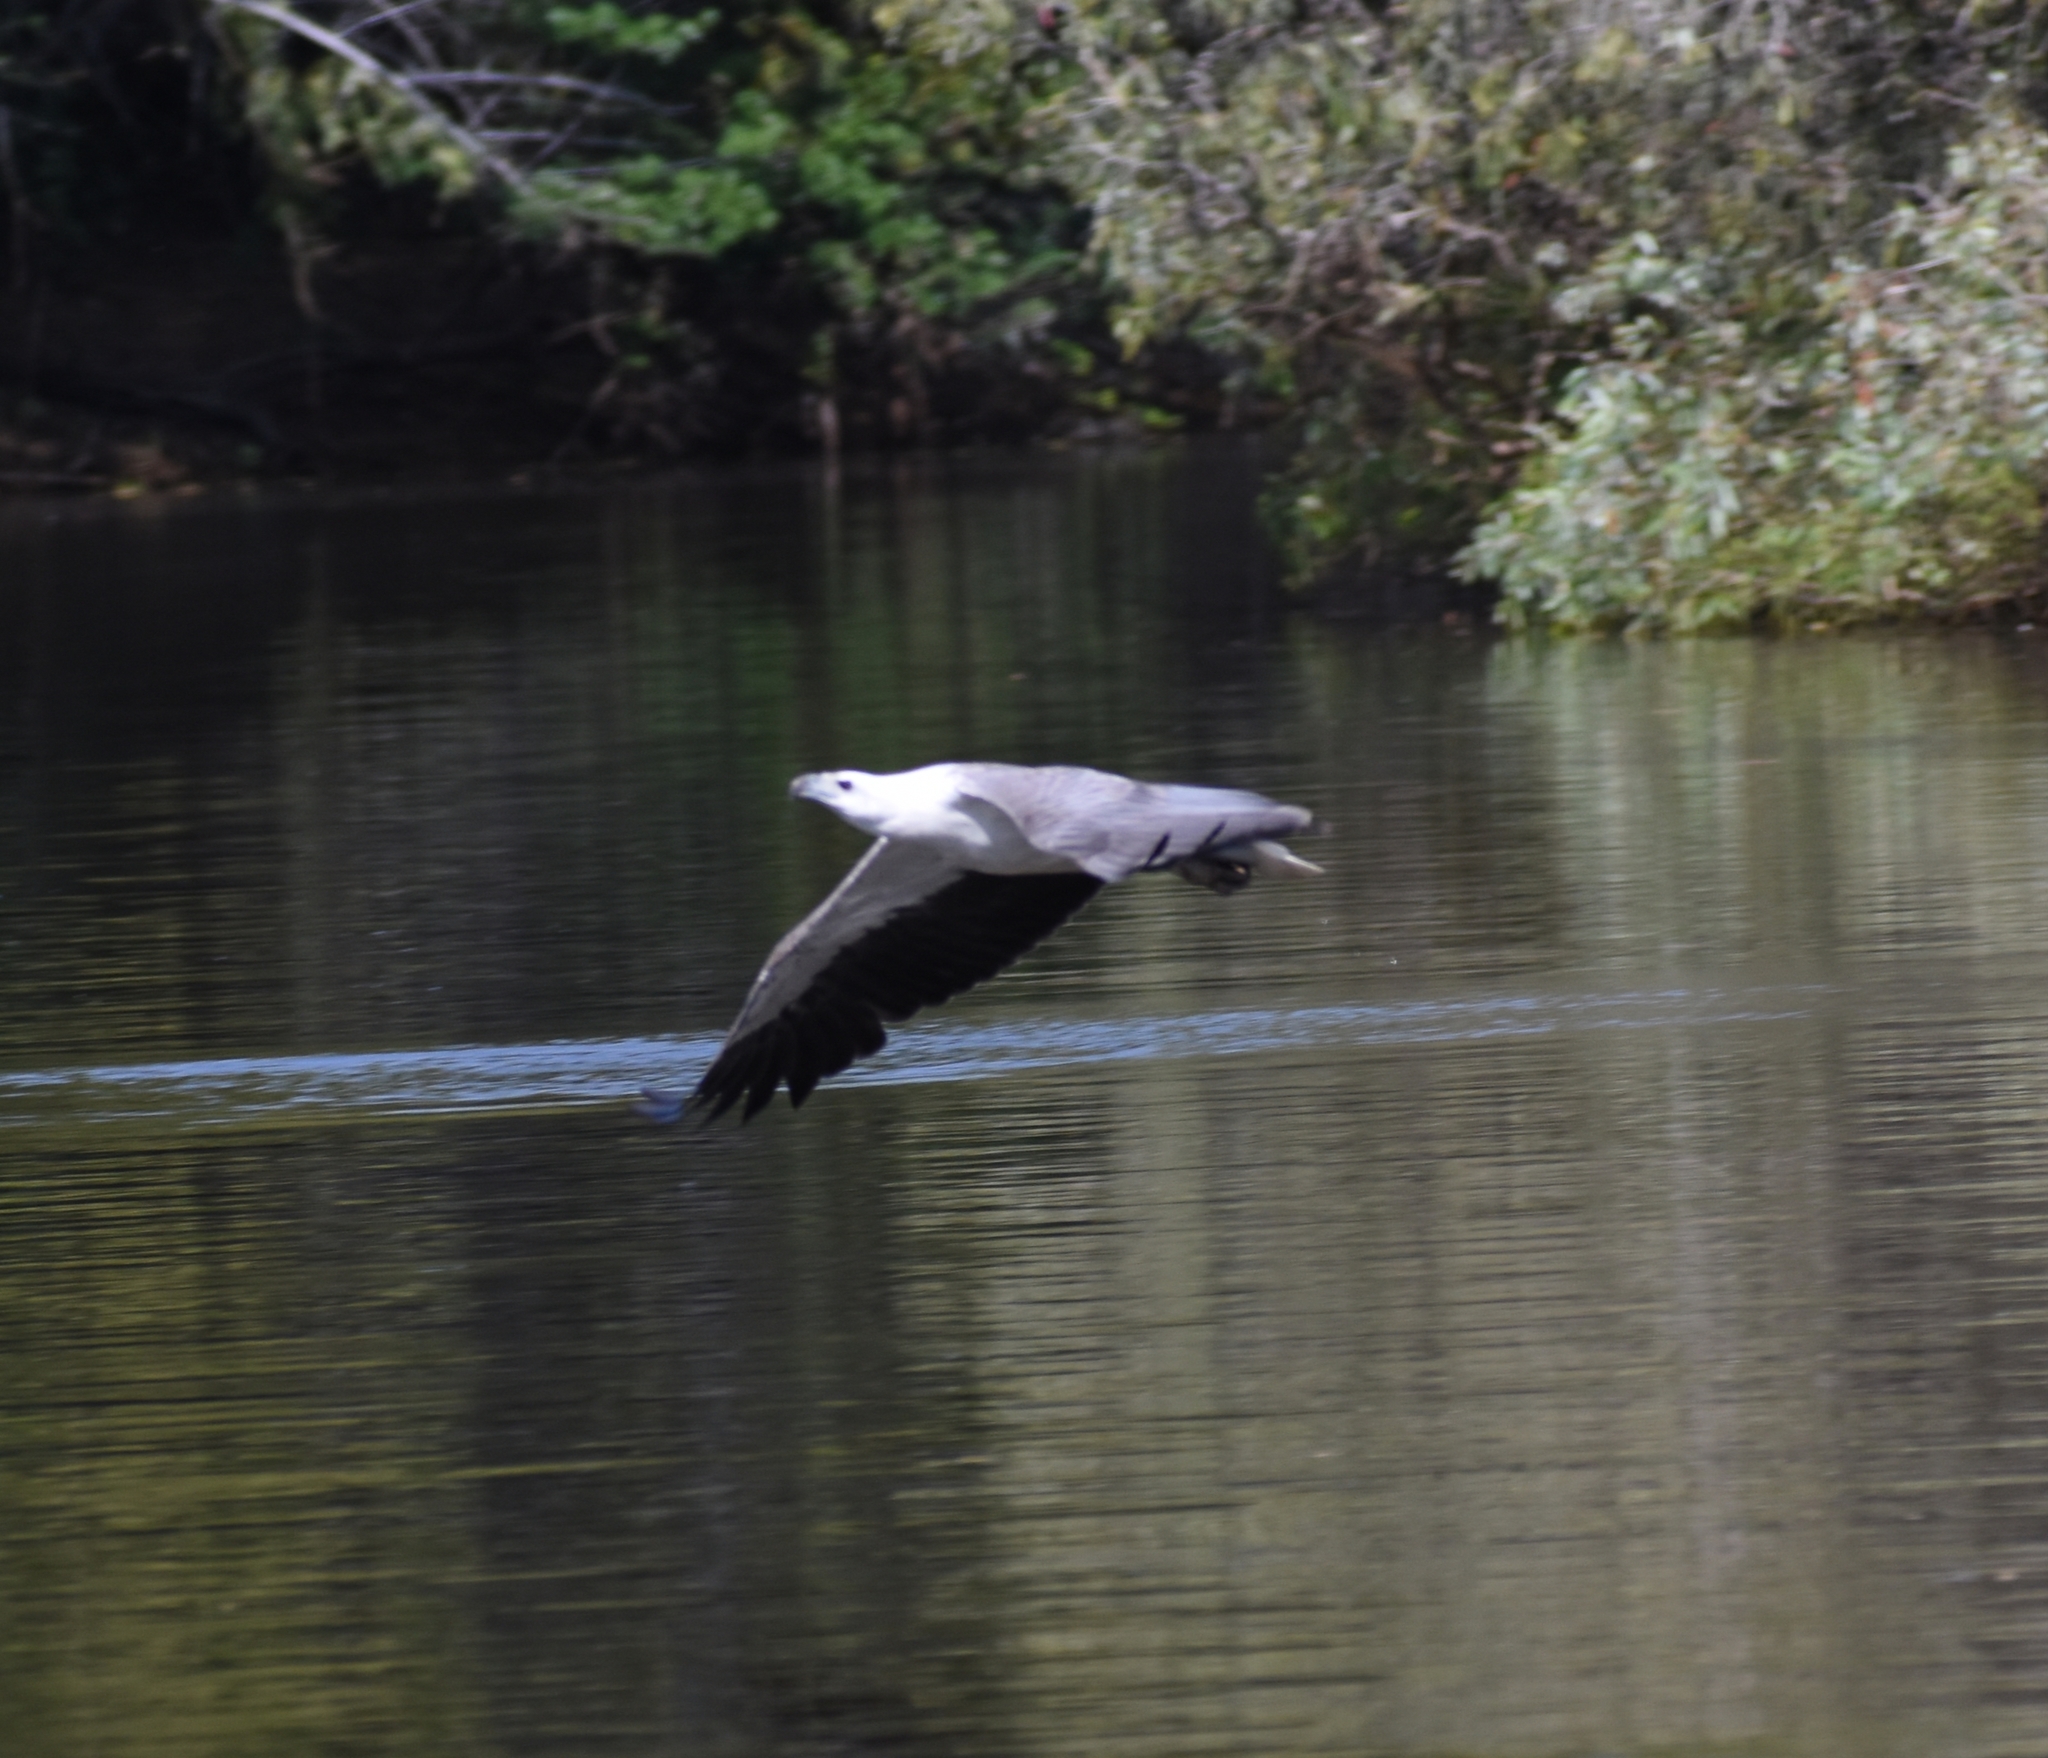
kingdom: Animalia
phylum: Chordata
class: Aves
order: Accipitriformes
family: Accipitridae
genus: Haliaeetus
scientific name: Haliaeetus leucogaster
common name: White-bellied sea eagle
